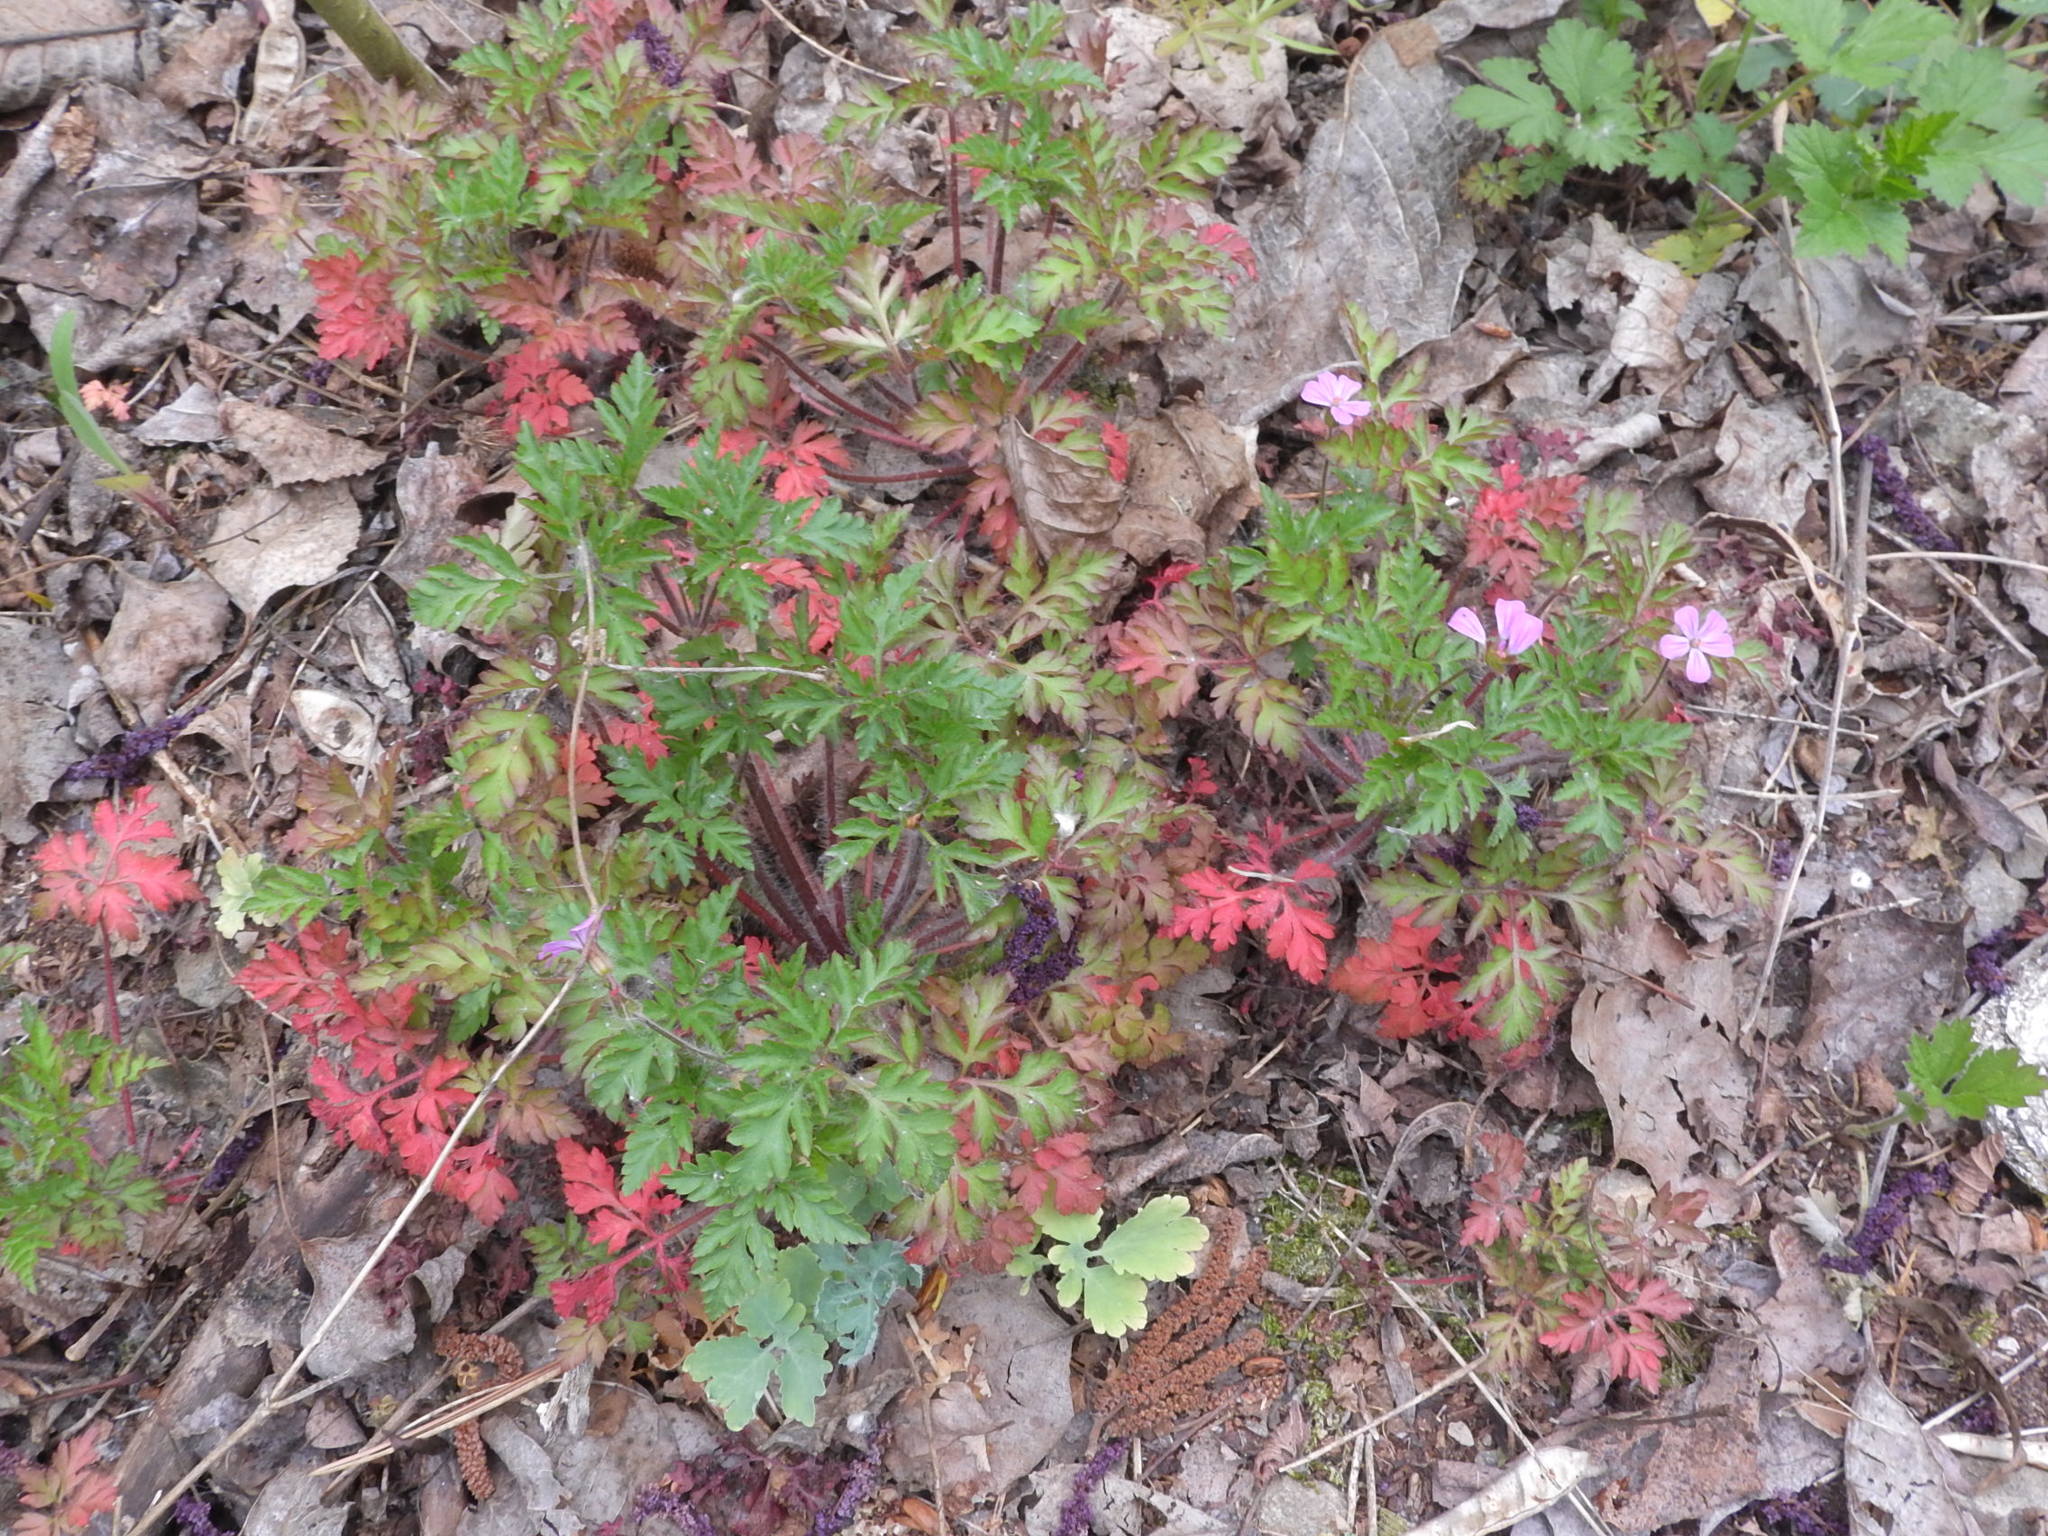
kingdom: Plantae
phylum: Tracheophyta
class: Magnoliopsida
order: Geraniales
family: Geraniaceae
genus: Geranium
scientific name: Geranium robertianum
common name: Herb-robert
